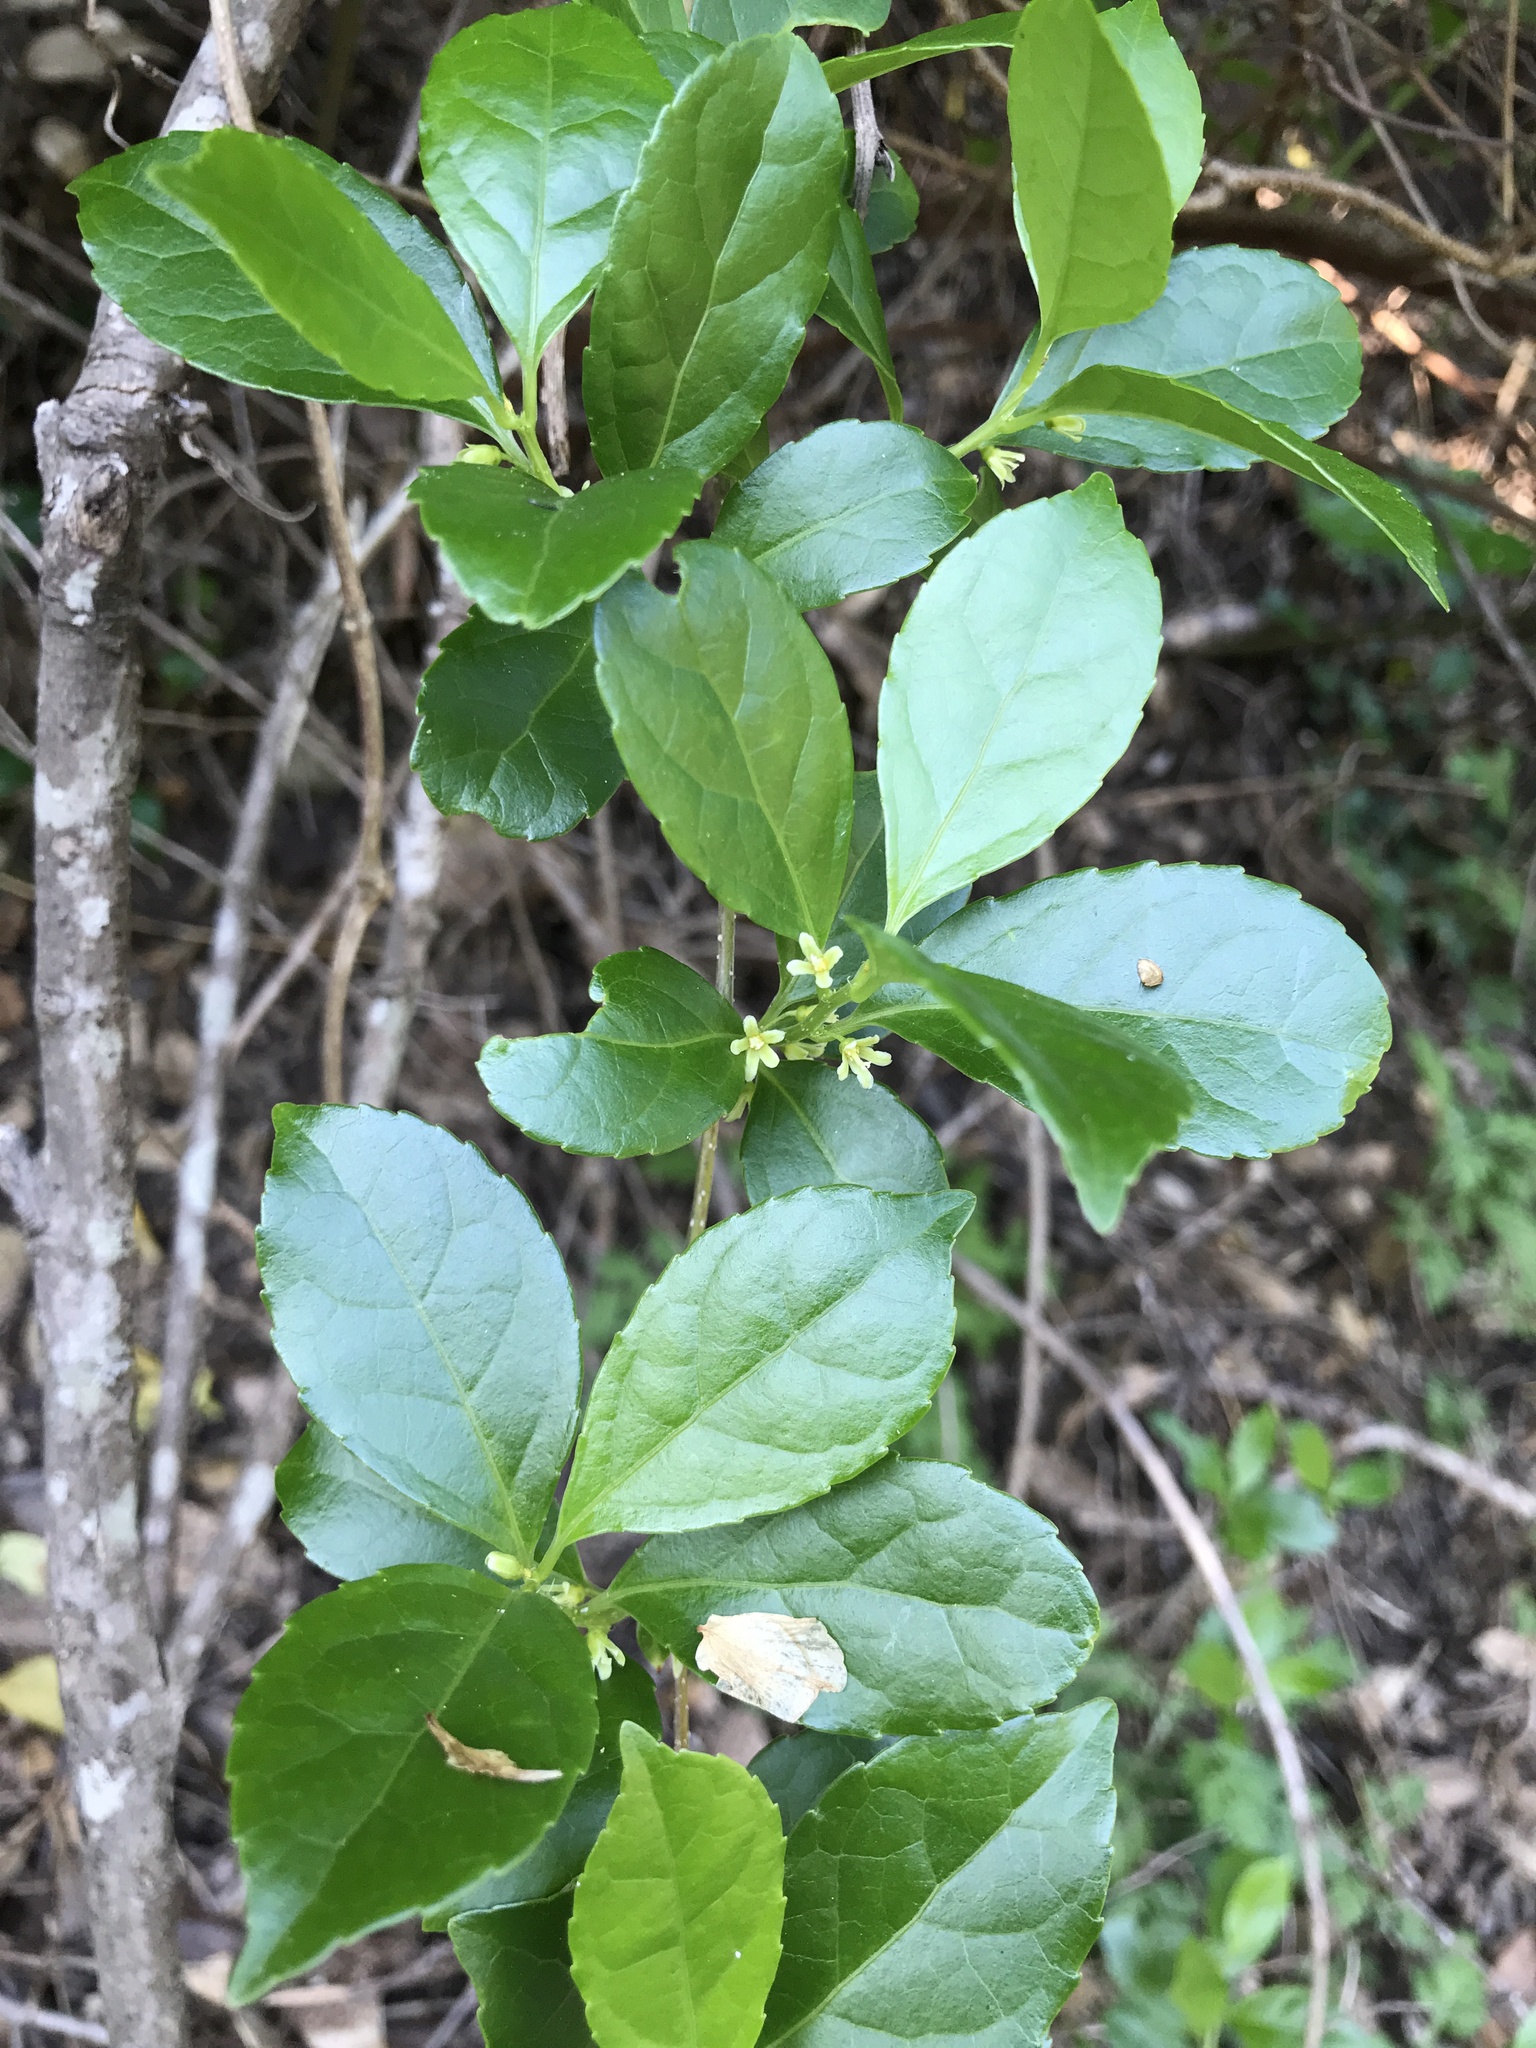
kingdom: Plantae
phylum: Tracheophyta
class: Magnoliopsida
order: Celastrales
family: Celastraceae
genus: Celastrus
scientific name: Celastrus punctatus
